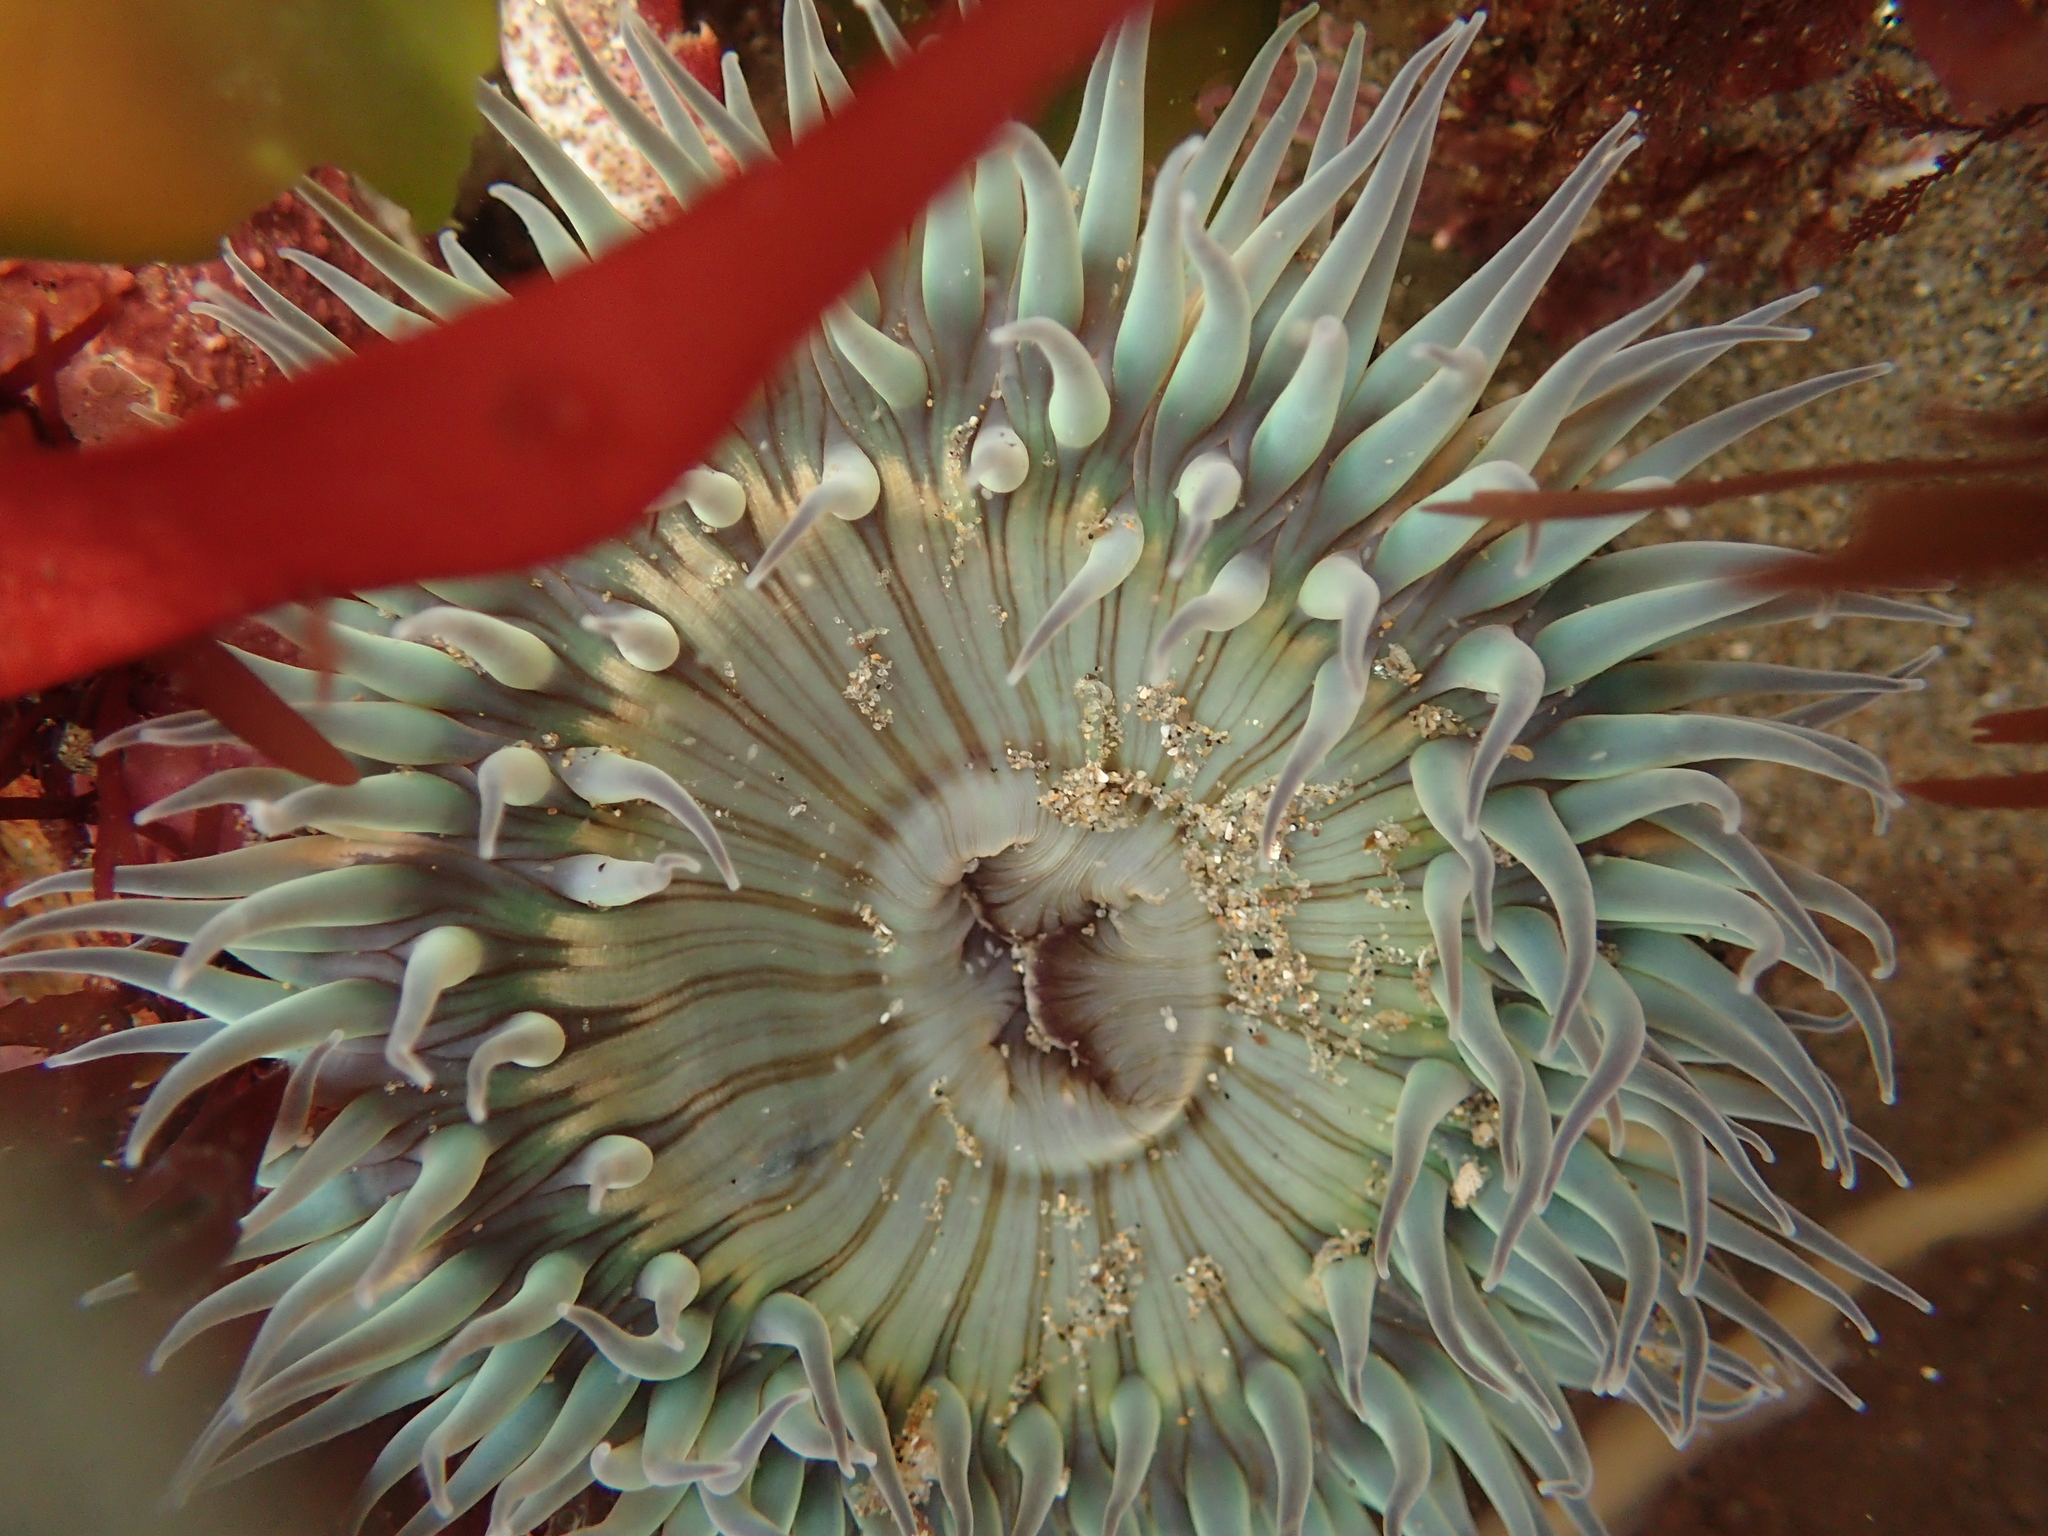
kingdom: Animalia
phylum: Cnidaria
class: Anthozoa
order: Actiniaria
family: Actiniidae
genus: Anthopleura
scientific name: Anthopleura sola
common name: Sun anemone
